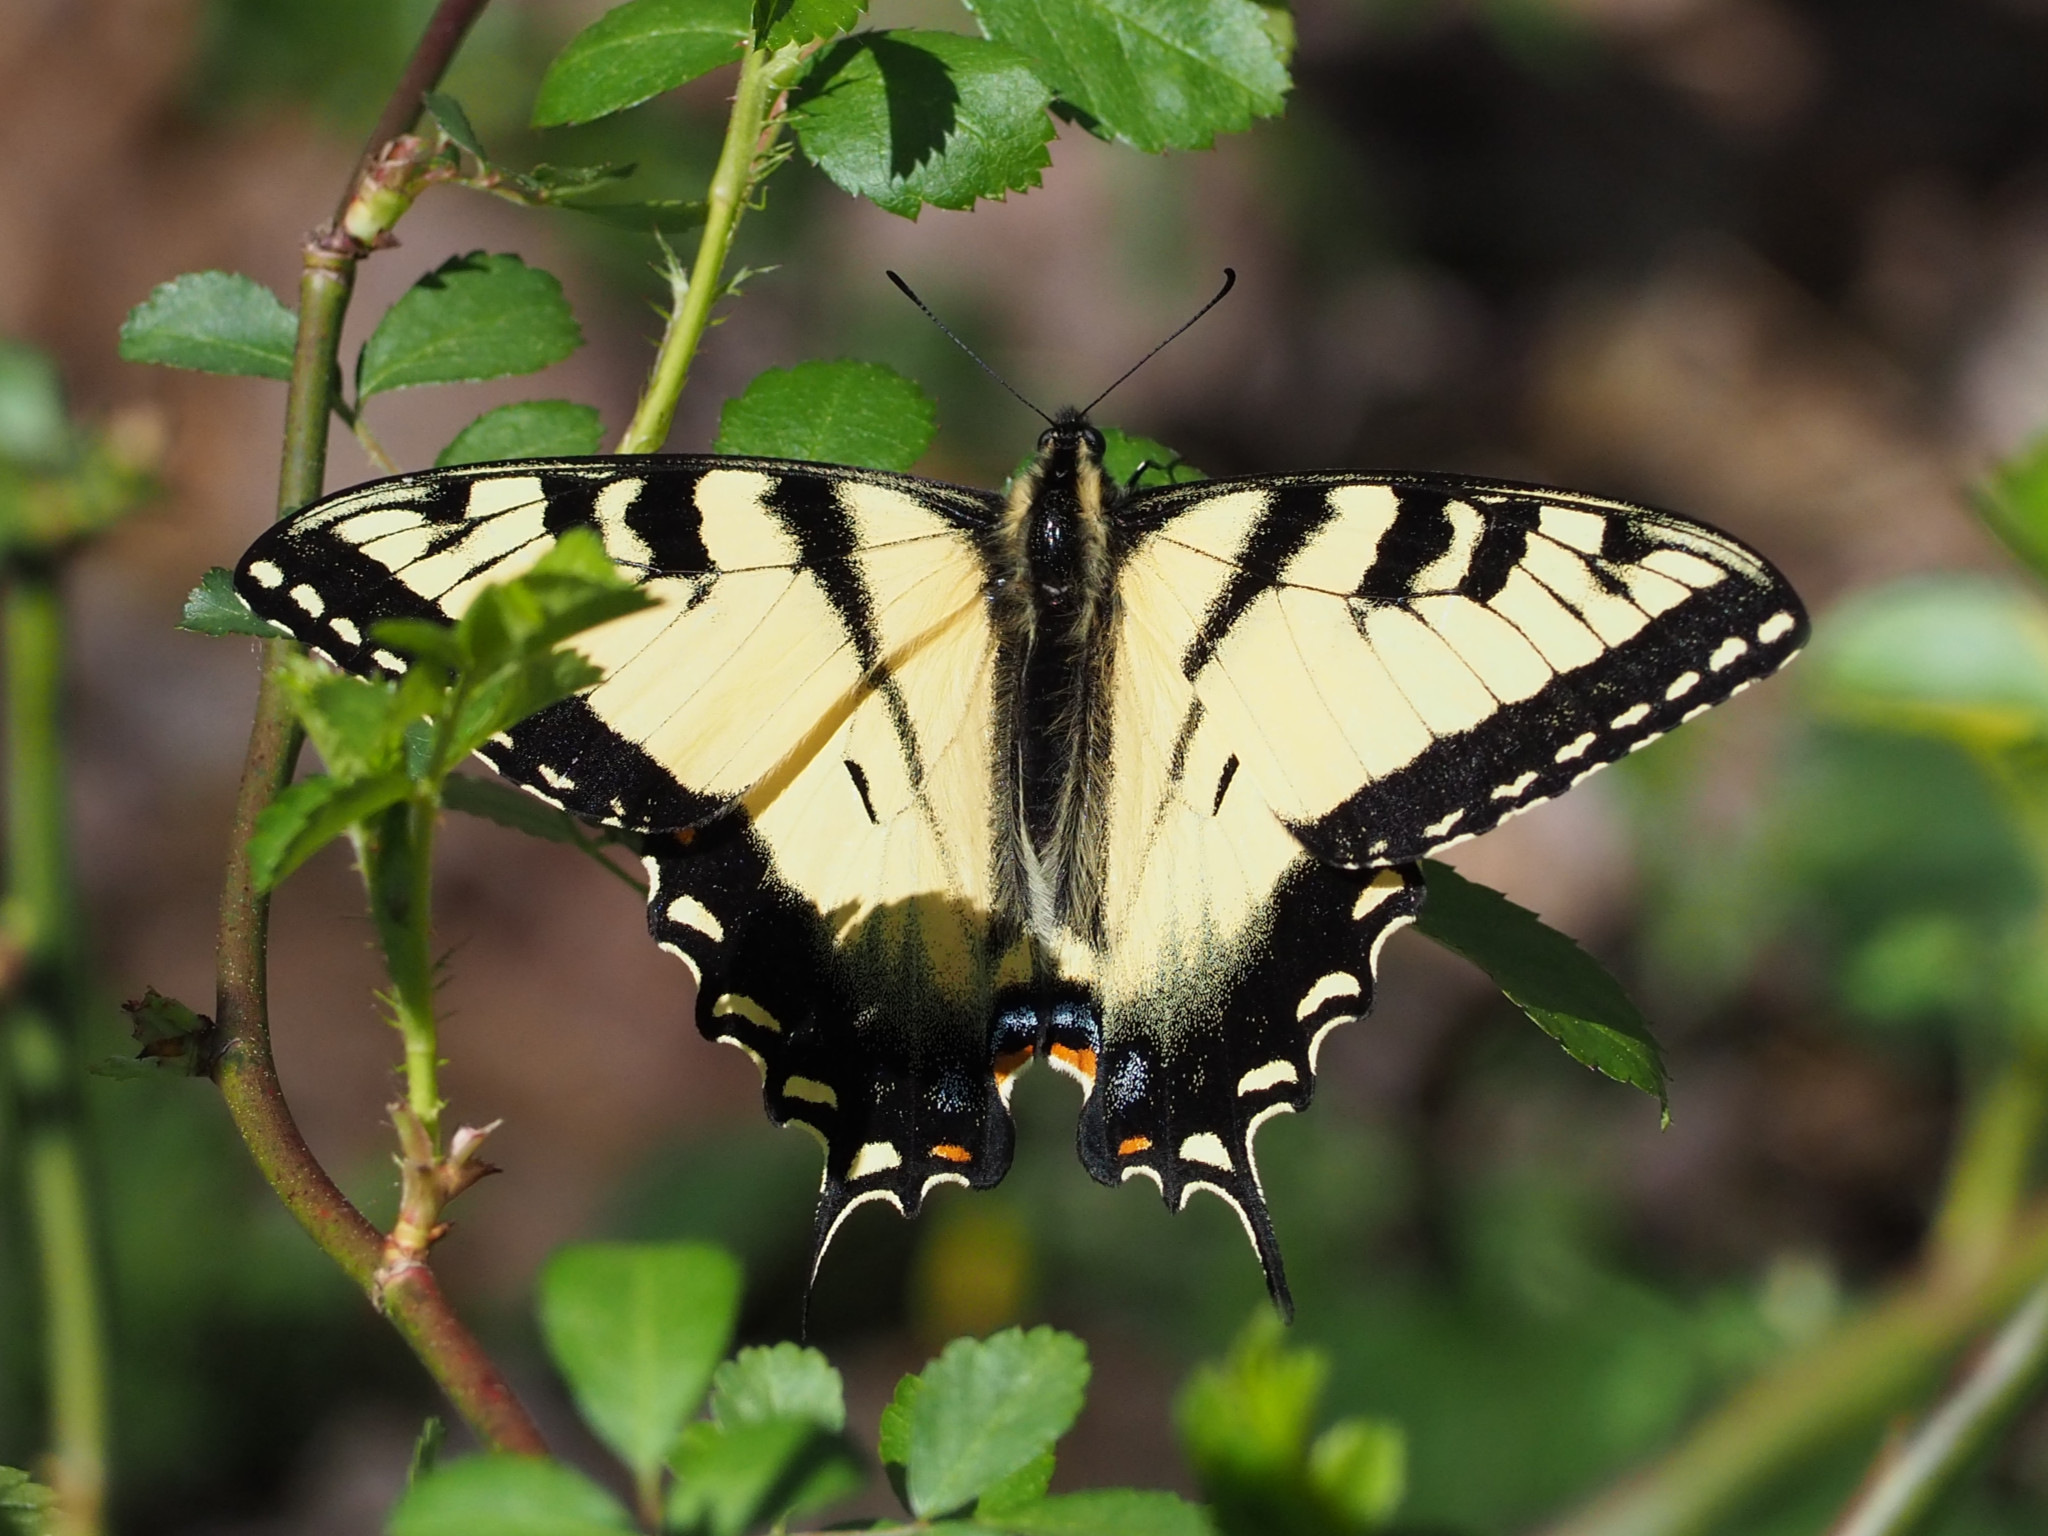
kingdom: Animalia
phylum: Arthropoda
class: Insecta
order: Lepidoptera
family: Papilionidae
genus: Papilio
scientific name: Papilio glaucus
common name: Tiger swallowtail
